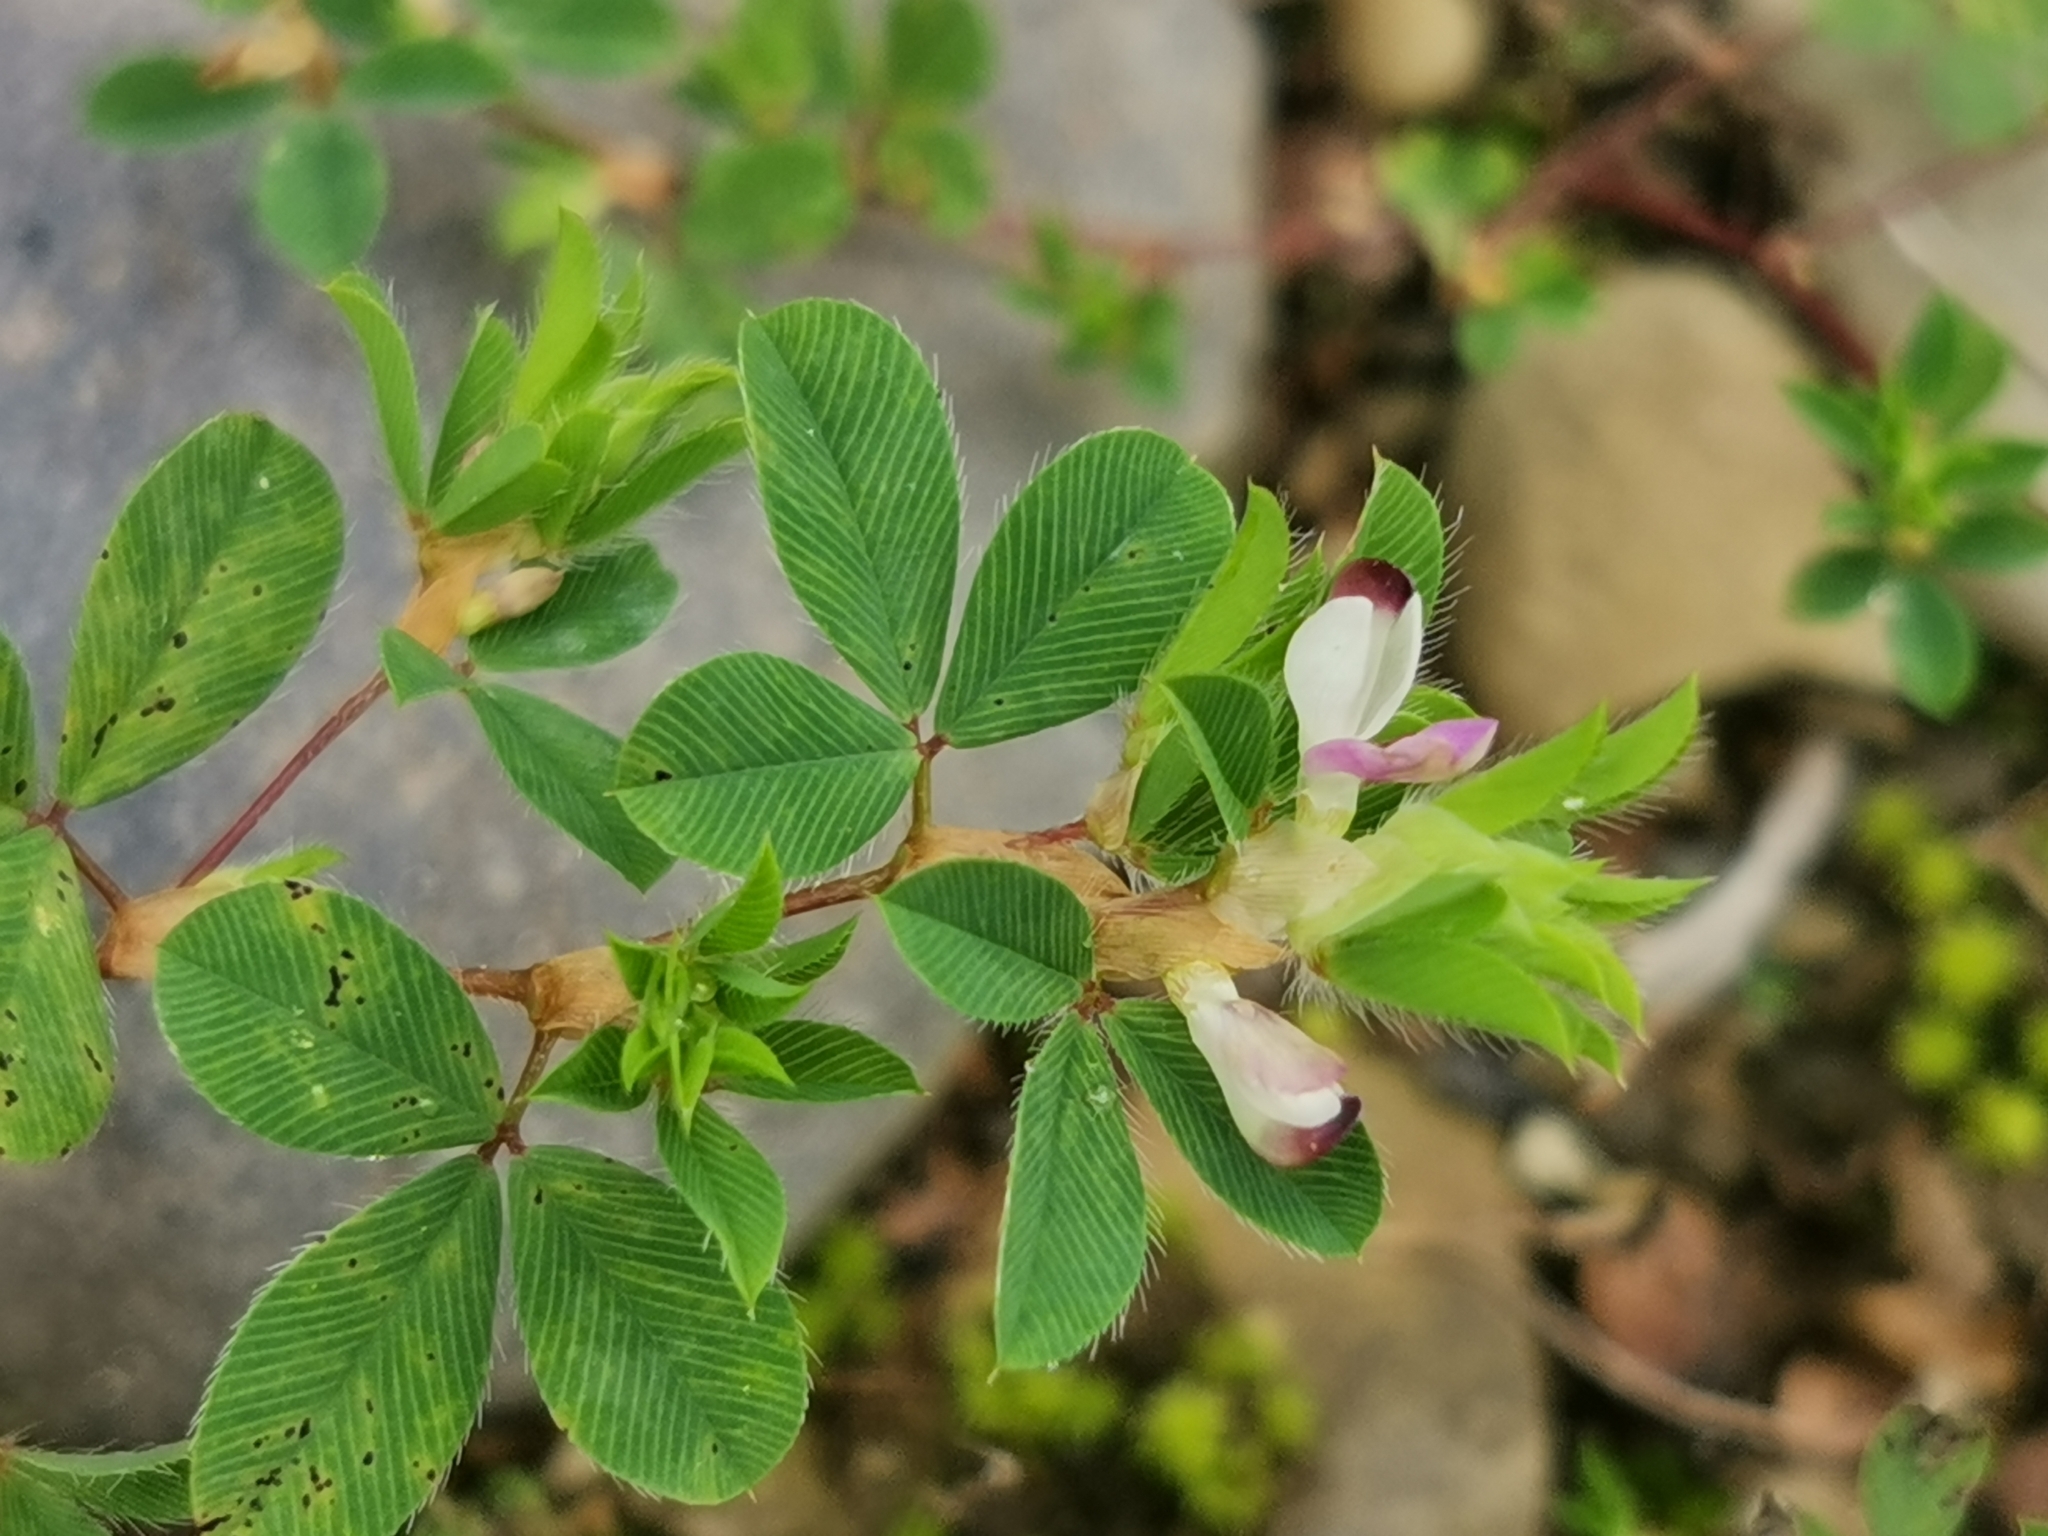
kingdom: Plantae
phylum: Tracheophyta
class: Magnoliopsida
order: Fabales
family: Fabaceae
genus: Kummerowia
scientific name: Kummerowia stipulacea
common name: Korean clover
